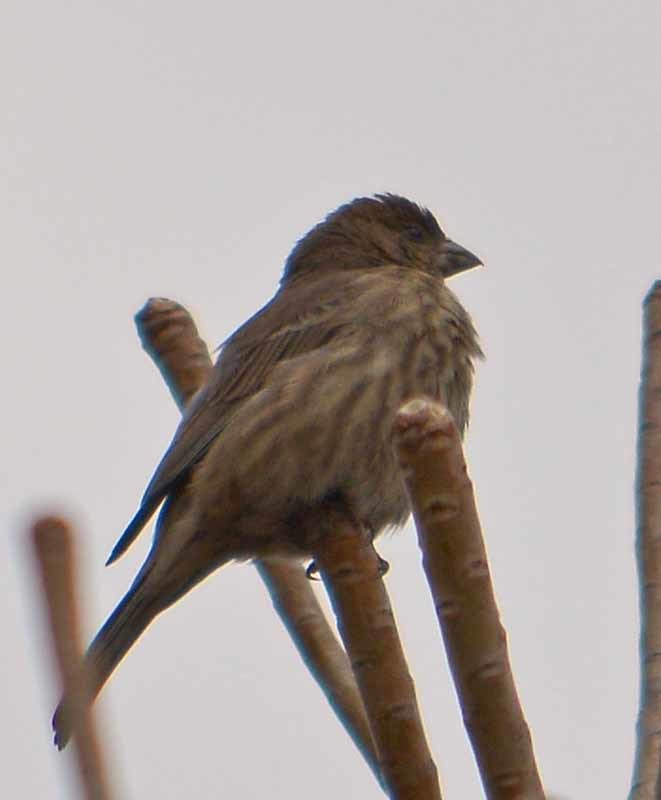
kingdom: Animalia
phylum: Chordata
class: Aves
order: Passeriformes
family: Fringillidae
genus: Haemorhous
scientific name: Haemorhous mexicanus
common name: House finch
